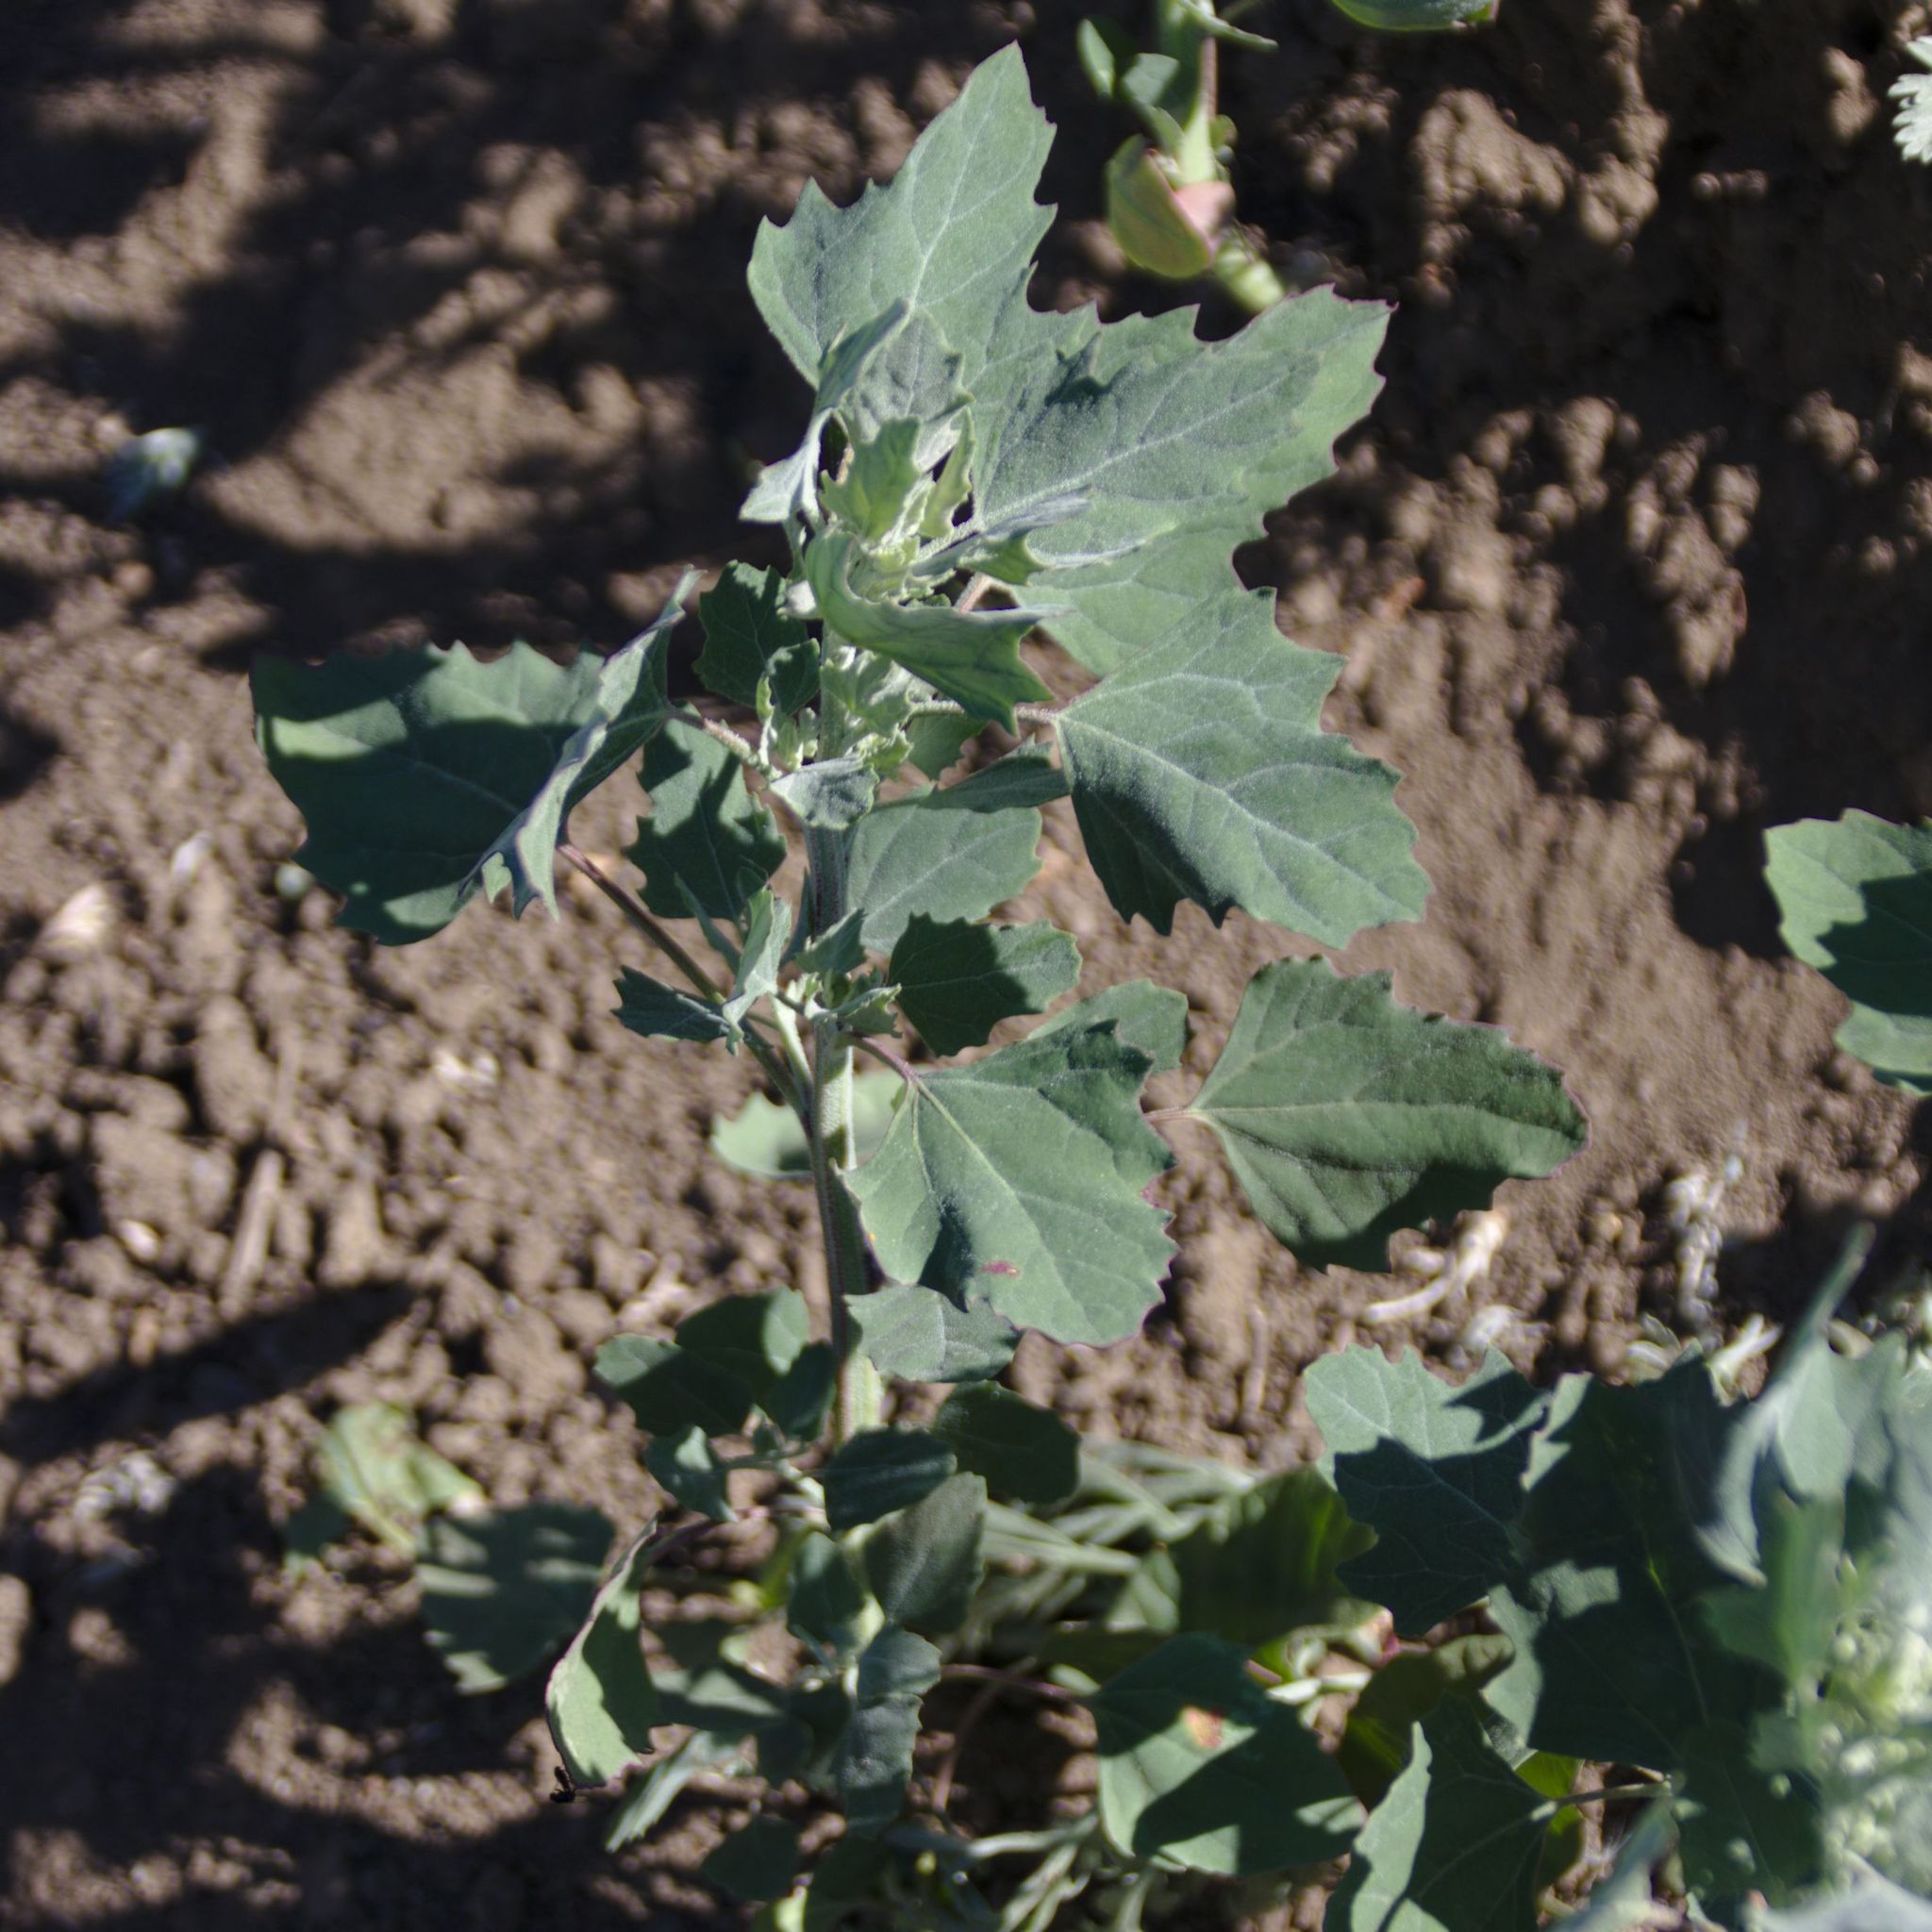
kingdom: Plantae
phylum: Tracheophyta
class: Magnoliopsida
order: Caryophyllales
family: Amaranthaceae
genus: Chenopodium
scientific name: Chenopodium album
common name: Fat-hen
